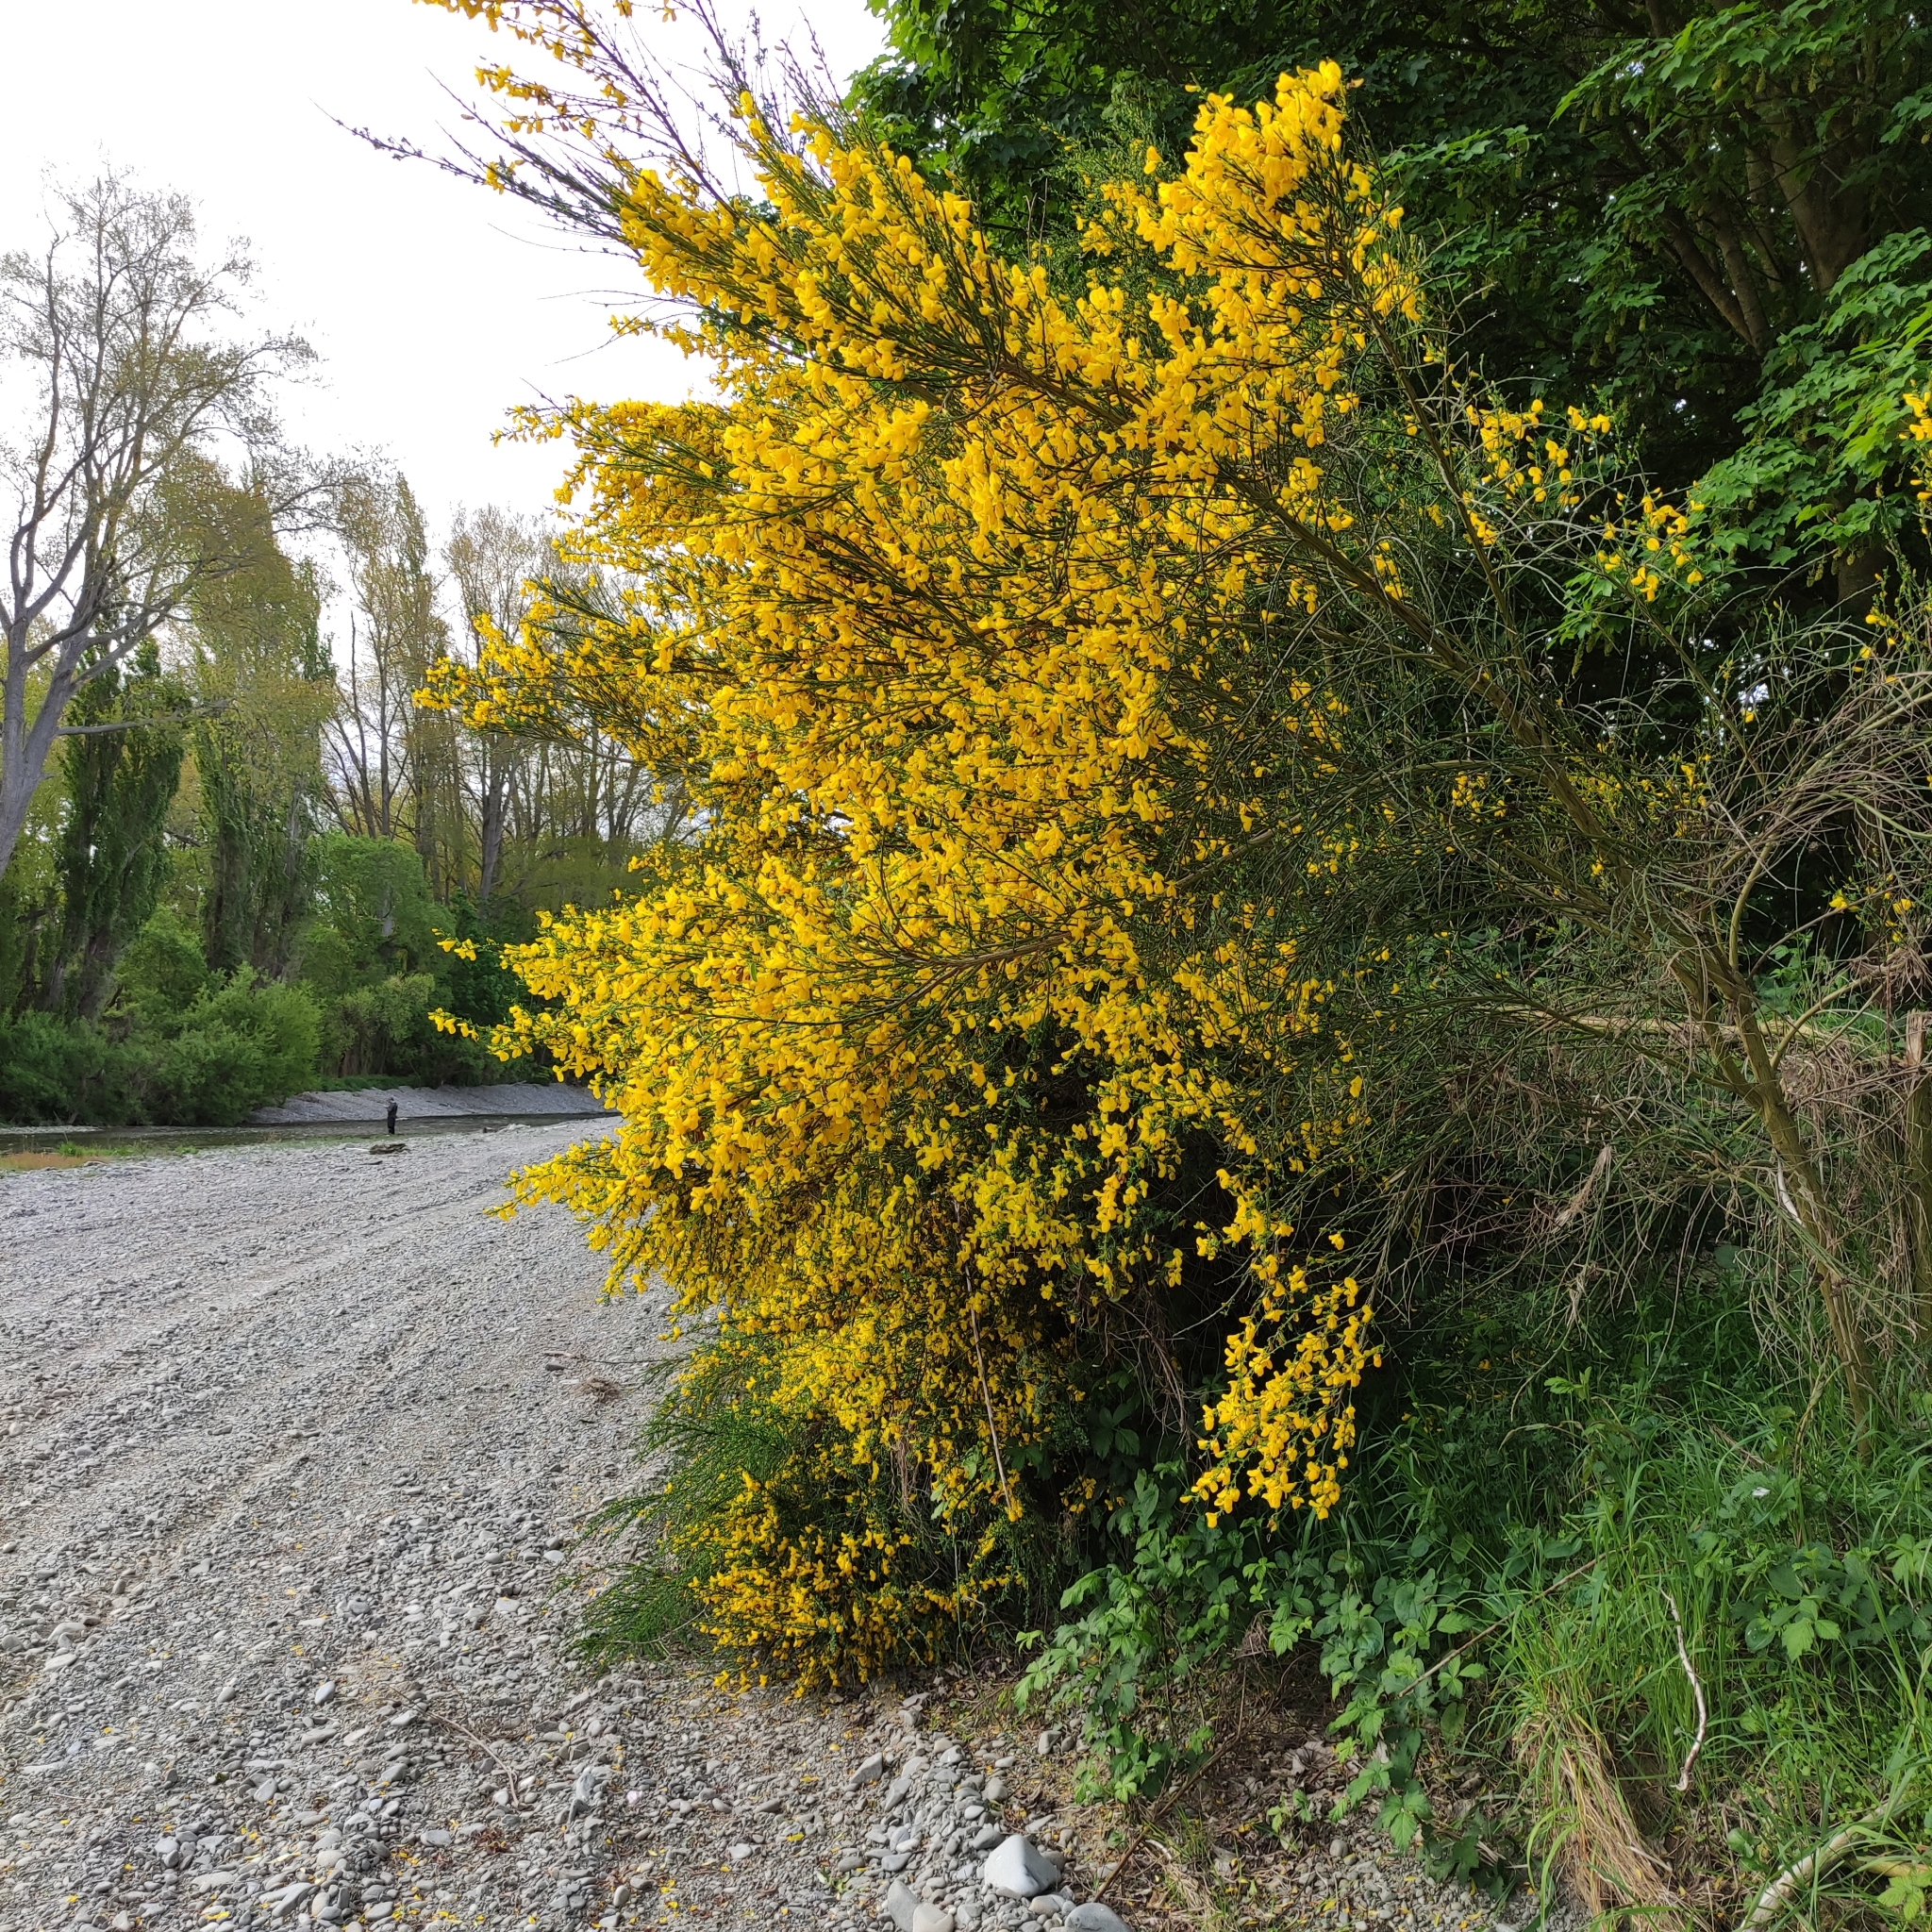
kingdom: Plantae
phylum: Tracheophyta
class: Magnoliopsida
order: Fabales
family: Fabaceae
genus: Cytisus
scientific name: Cytisus scoparius
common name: Scotch broom
